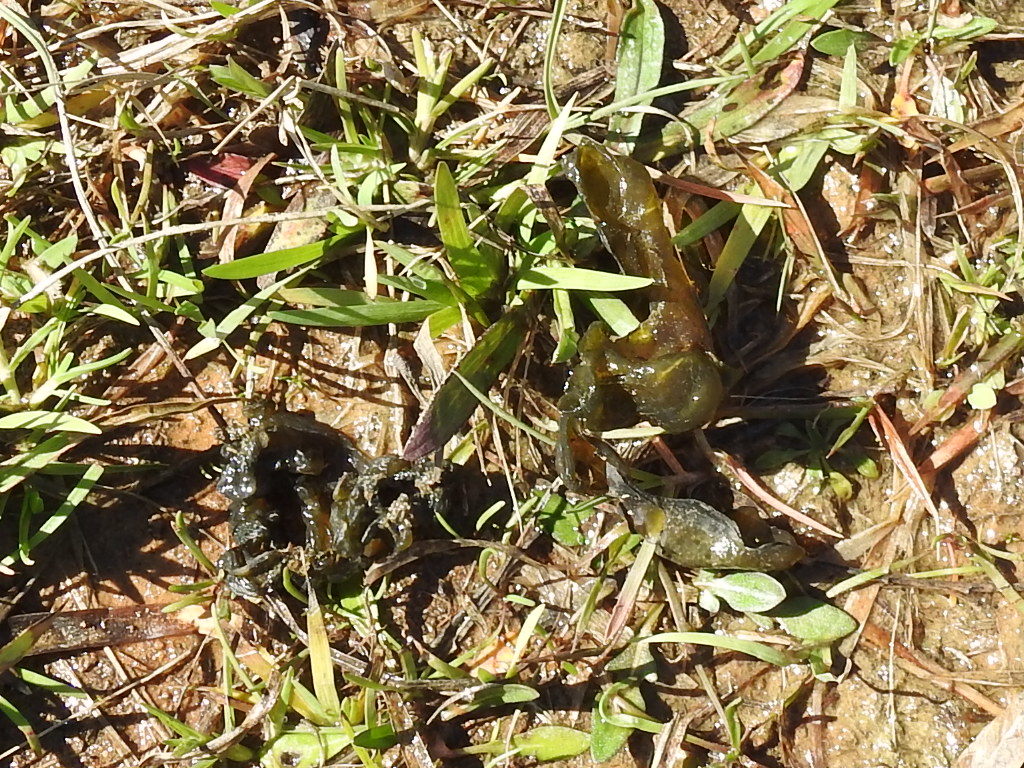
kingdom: Bacteria
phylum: Cyanobacteria
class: Cyanobacteriia
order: Cyanobacteriales
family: Nostocaceae
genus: Nostoc
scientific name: Nostoc commune
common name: Star jelly
